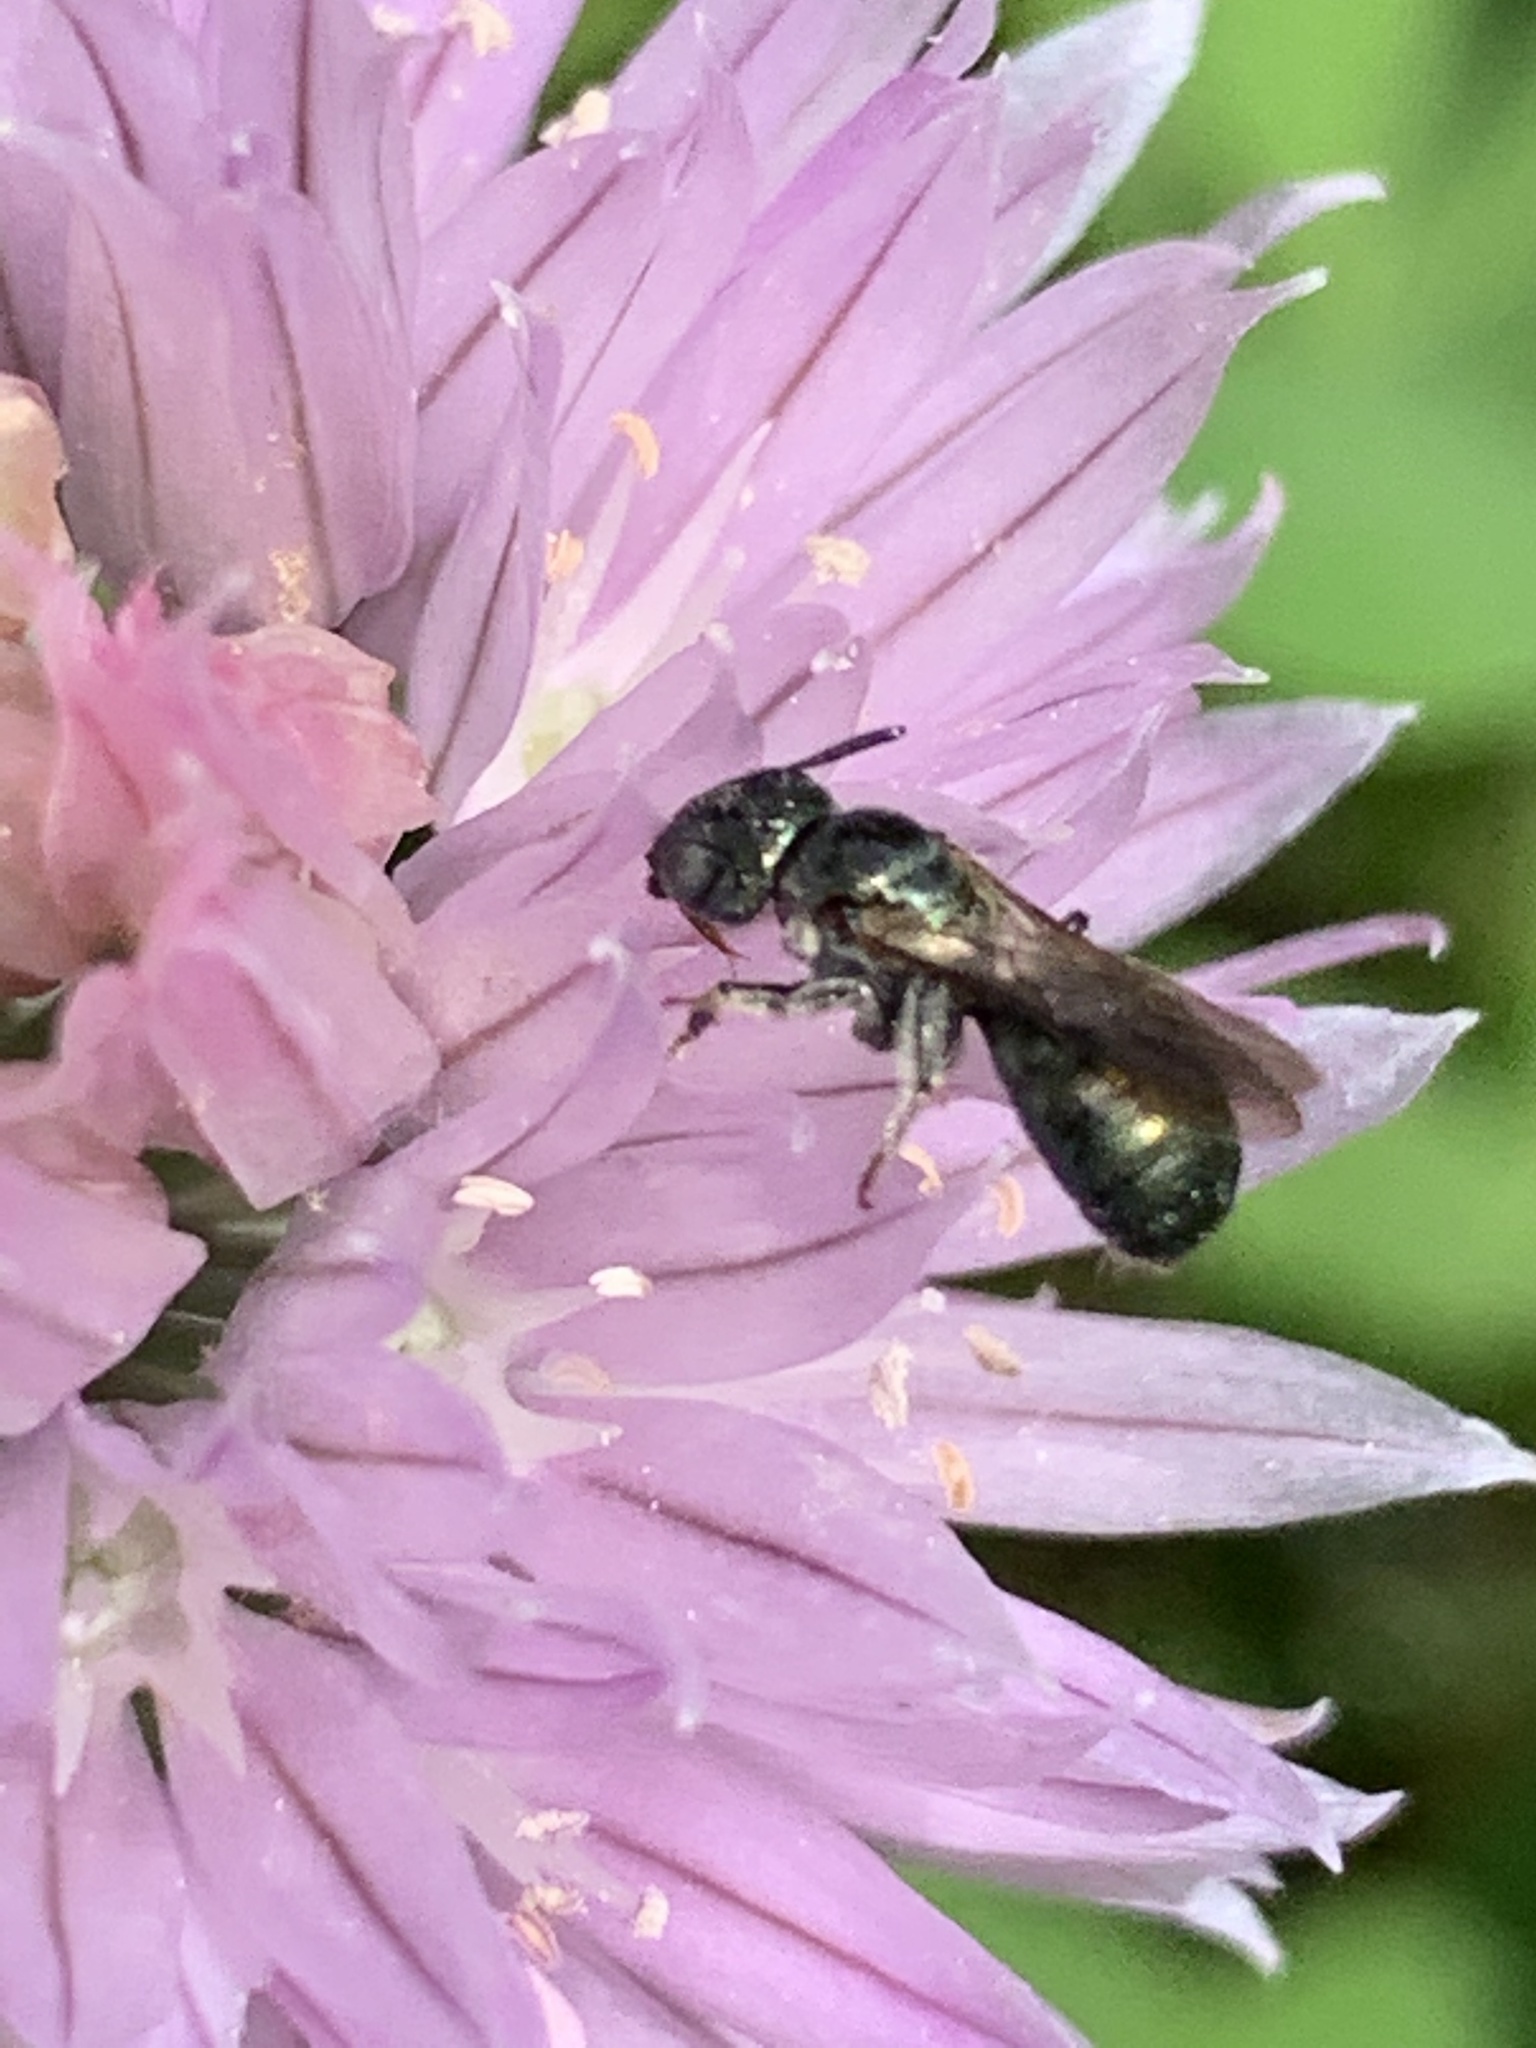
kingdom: Animalia
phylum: Arthropoda
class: Insecta
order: Hymenoptera
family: Apidae
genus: Zadontomerus
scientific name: Zadontomerus
